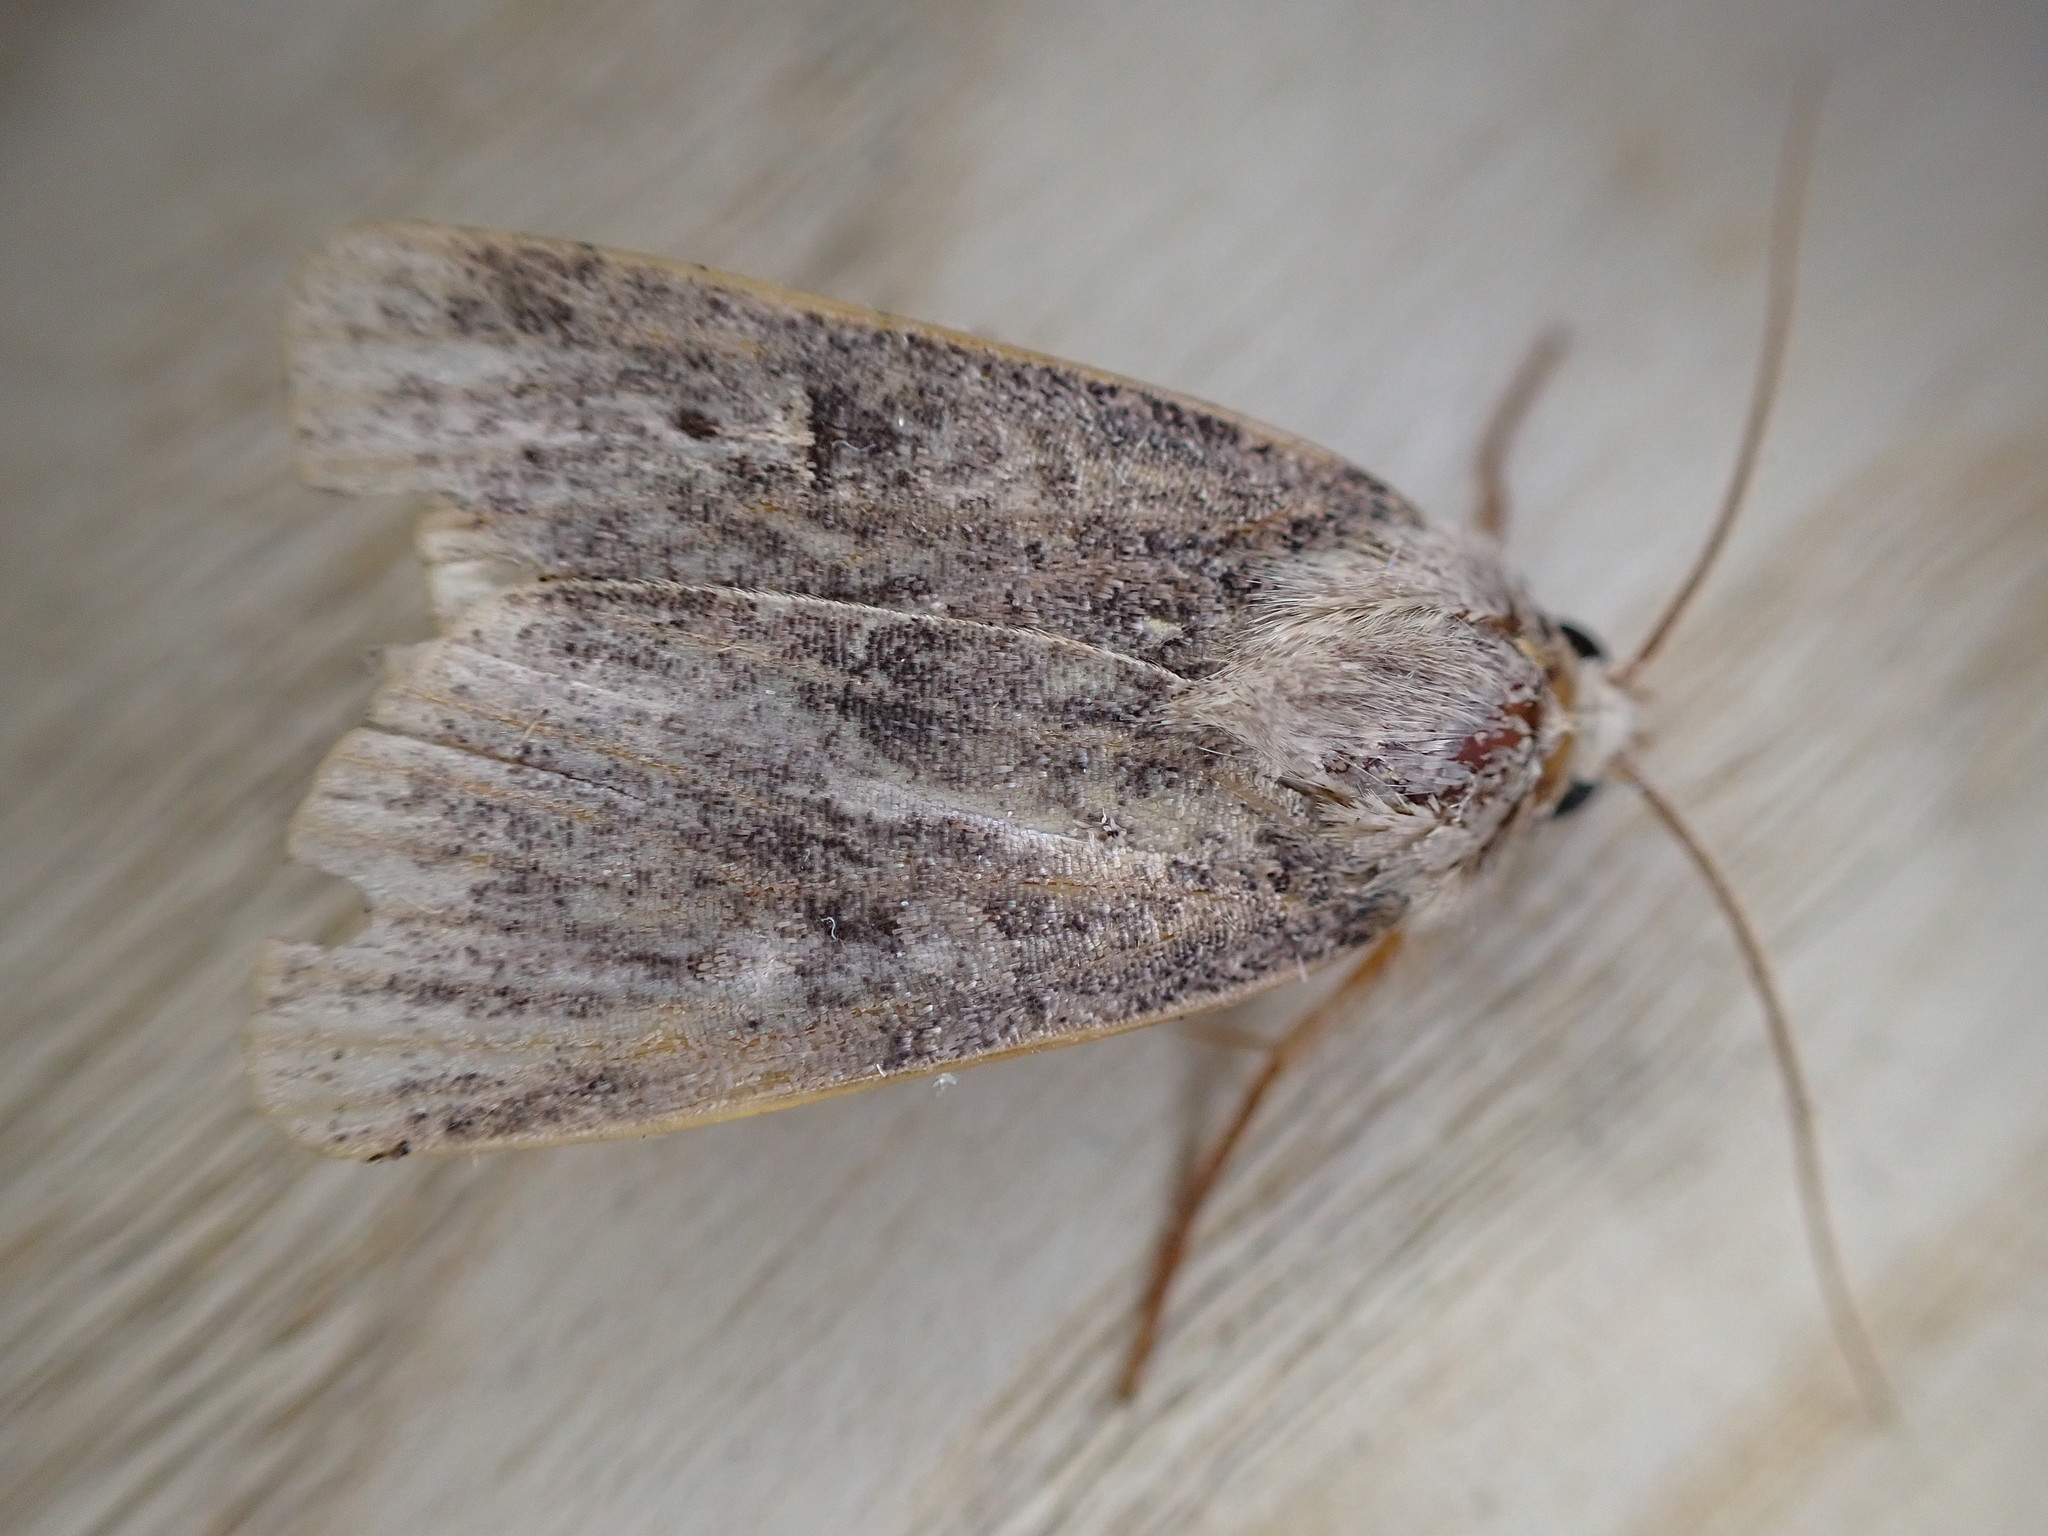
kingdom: Animalia
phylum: Arthropoda
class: Insecta
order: Lepidoptera
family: Noctuidae
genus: Amphipyra
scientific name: Amphipyra tragopoginis
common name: Mouse moth
